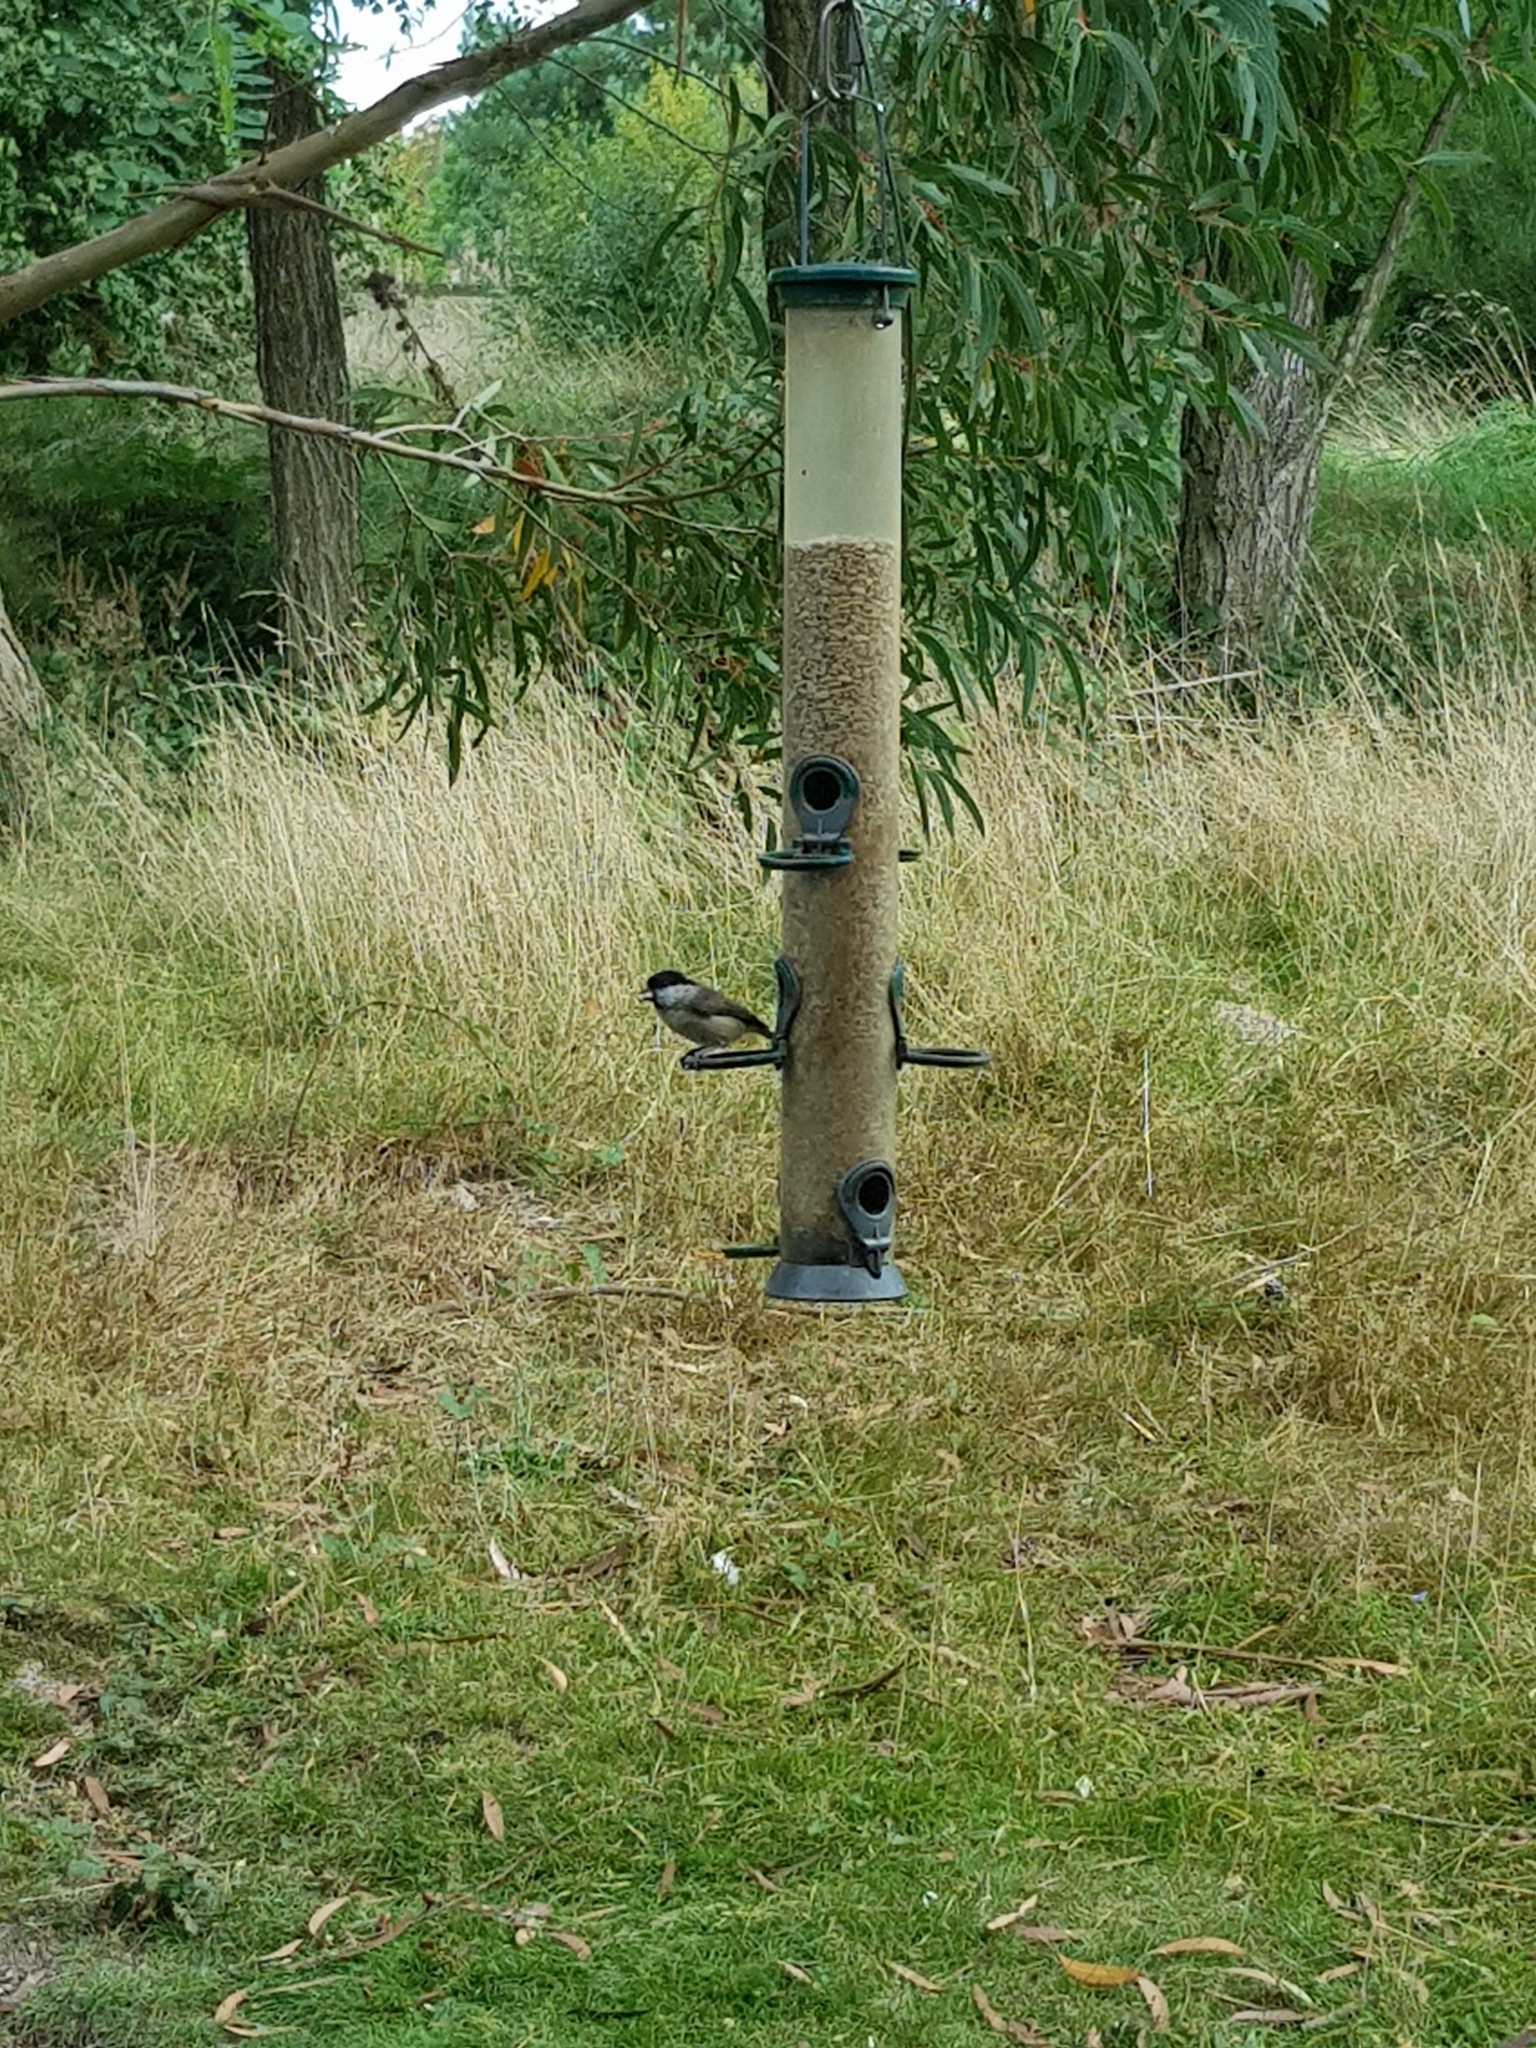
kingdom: Animalia
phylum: Chordata
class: Aves
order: Passeriformes
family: Paridae
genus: Poecile
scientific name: Poecile palustris
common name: Marsh tit
